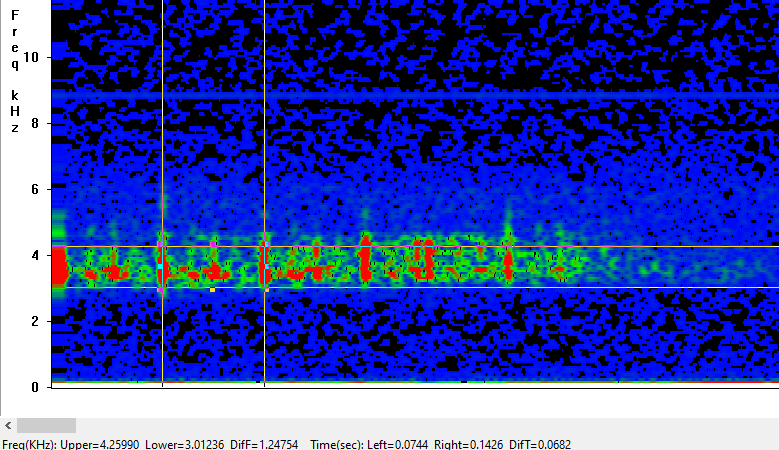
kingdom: Animalia
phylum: Arthropoda
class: Insecta
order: Orthoptera
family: Tettigoniidae
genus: Leptophyes
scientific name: Leptophyes punctatissima
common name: Speckled bush-cricket
